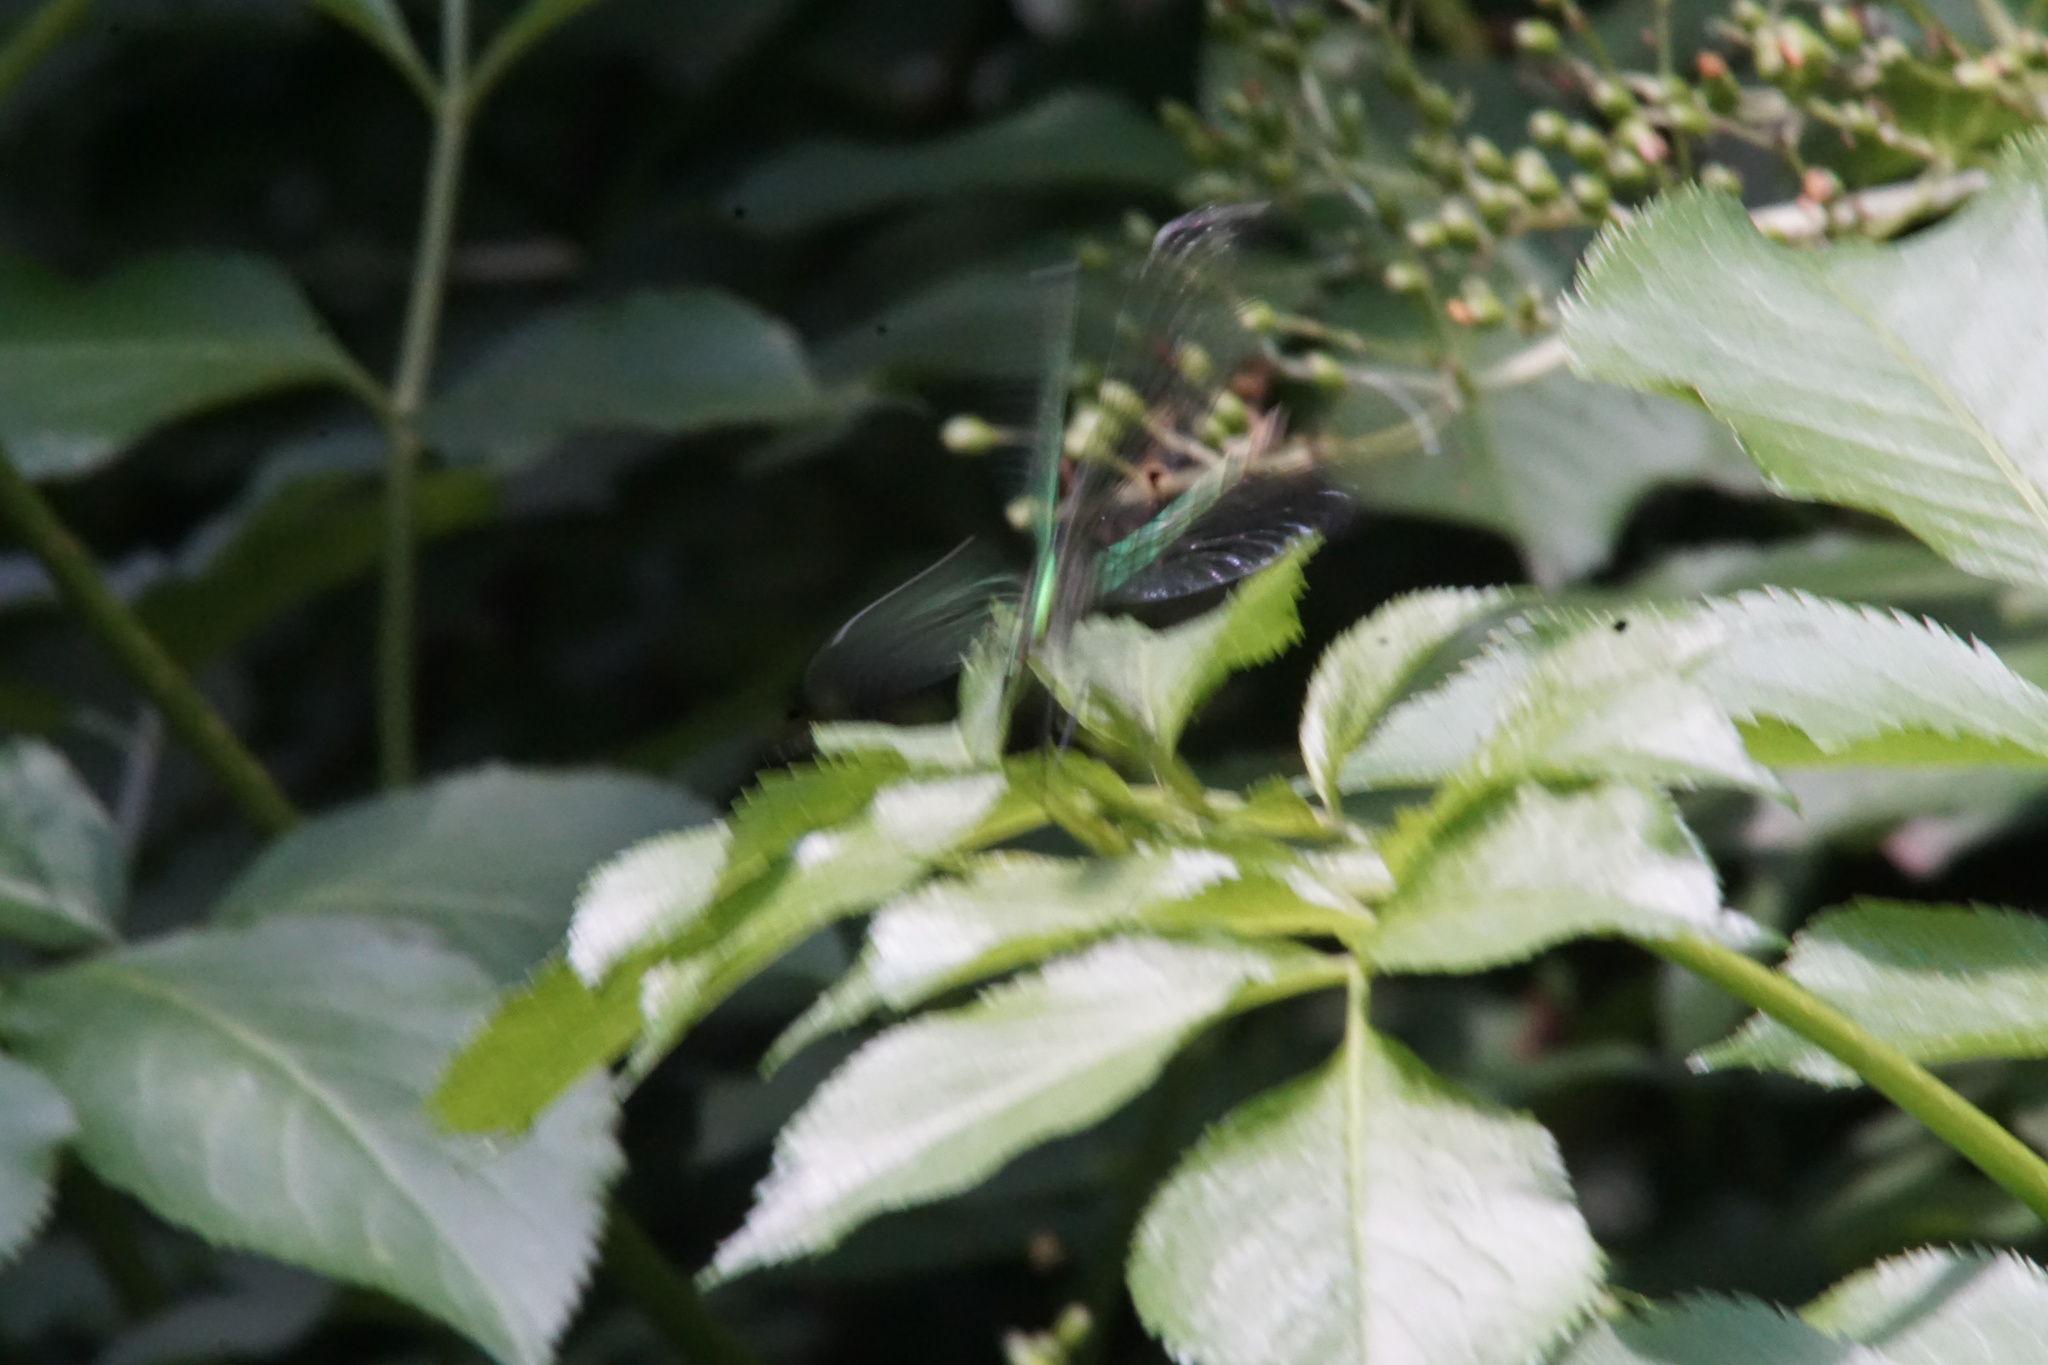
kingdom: Animalia
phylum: Arthropoda
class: Insecta
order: Odonata
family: Calopterygidae
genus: Calopteryx
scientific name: Calopteryx splendens
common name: Banded demoiselle
